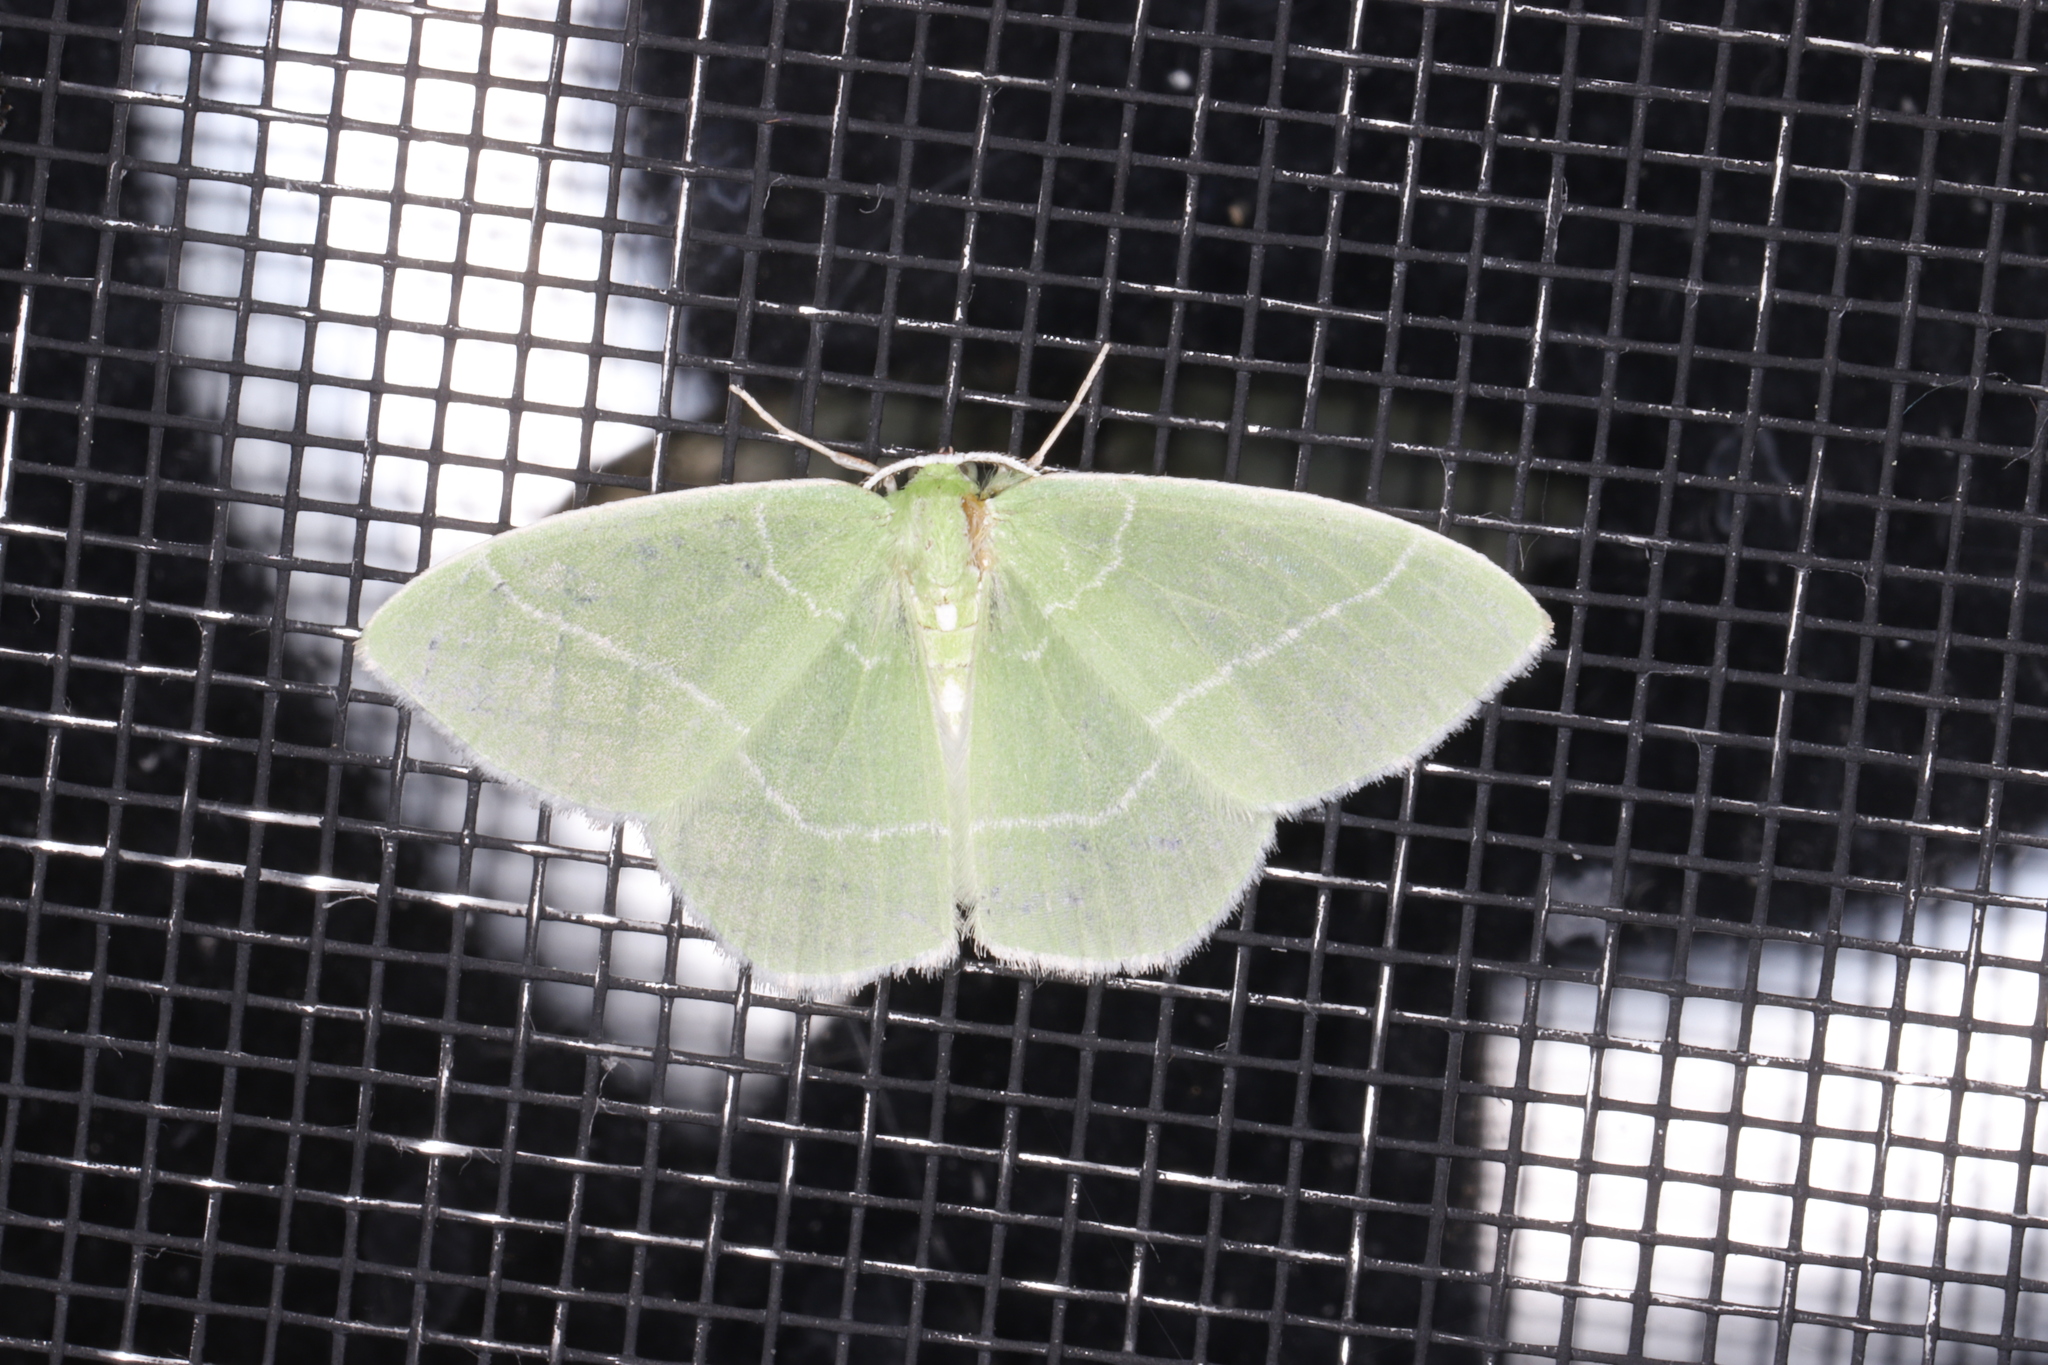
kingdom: Animalia
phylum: Arthropoda
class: Insecta
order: Lepidoptera
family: Geometridae
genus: Nemoria
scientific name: Nemoria mimosaria
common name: White-fringed emerald
